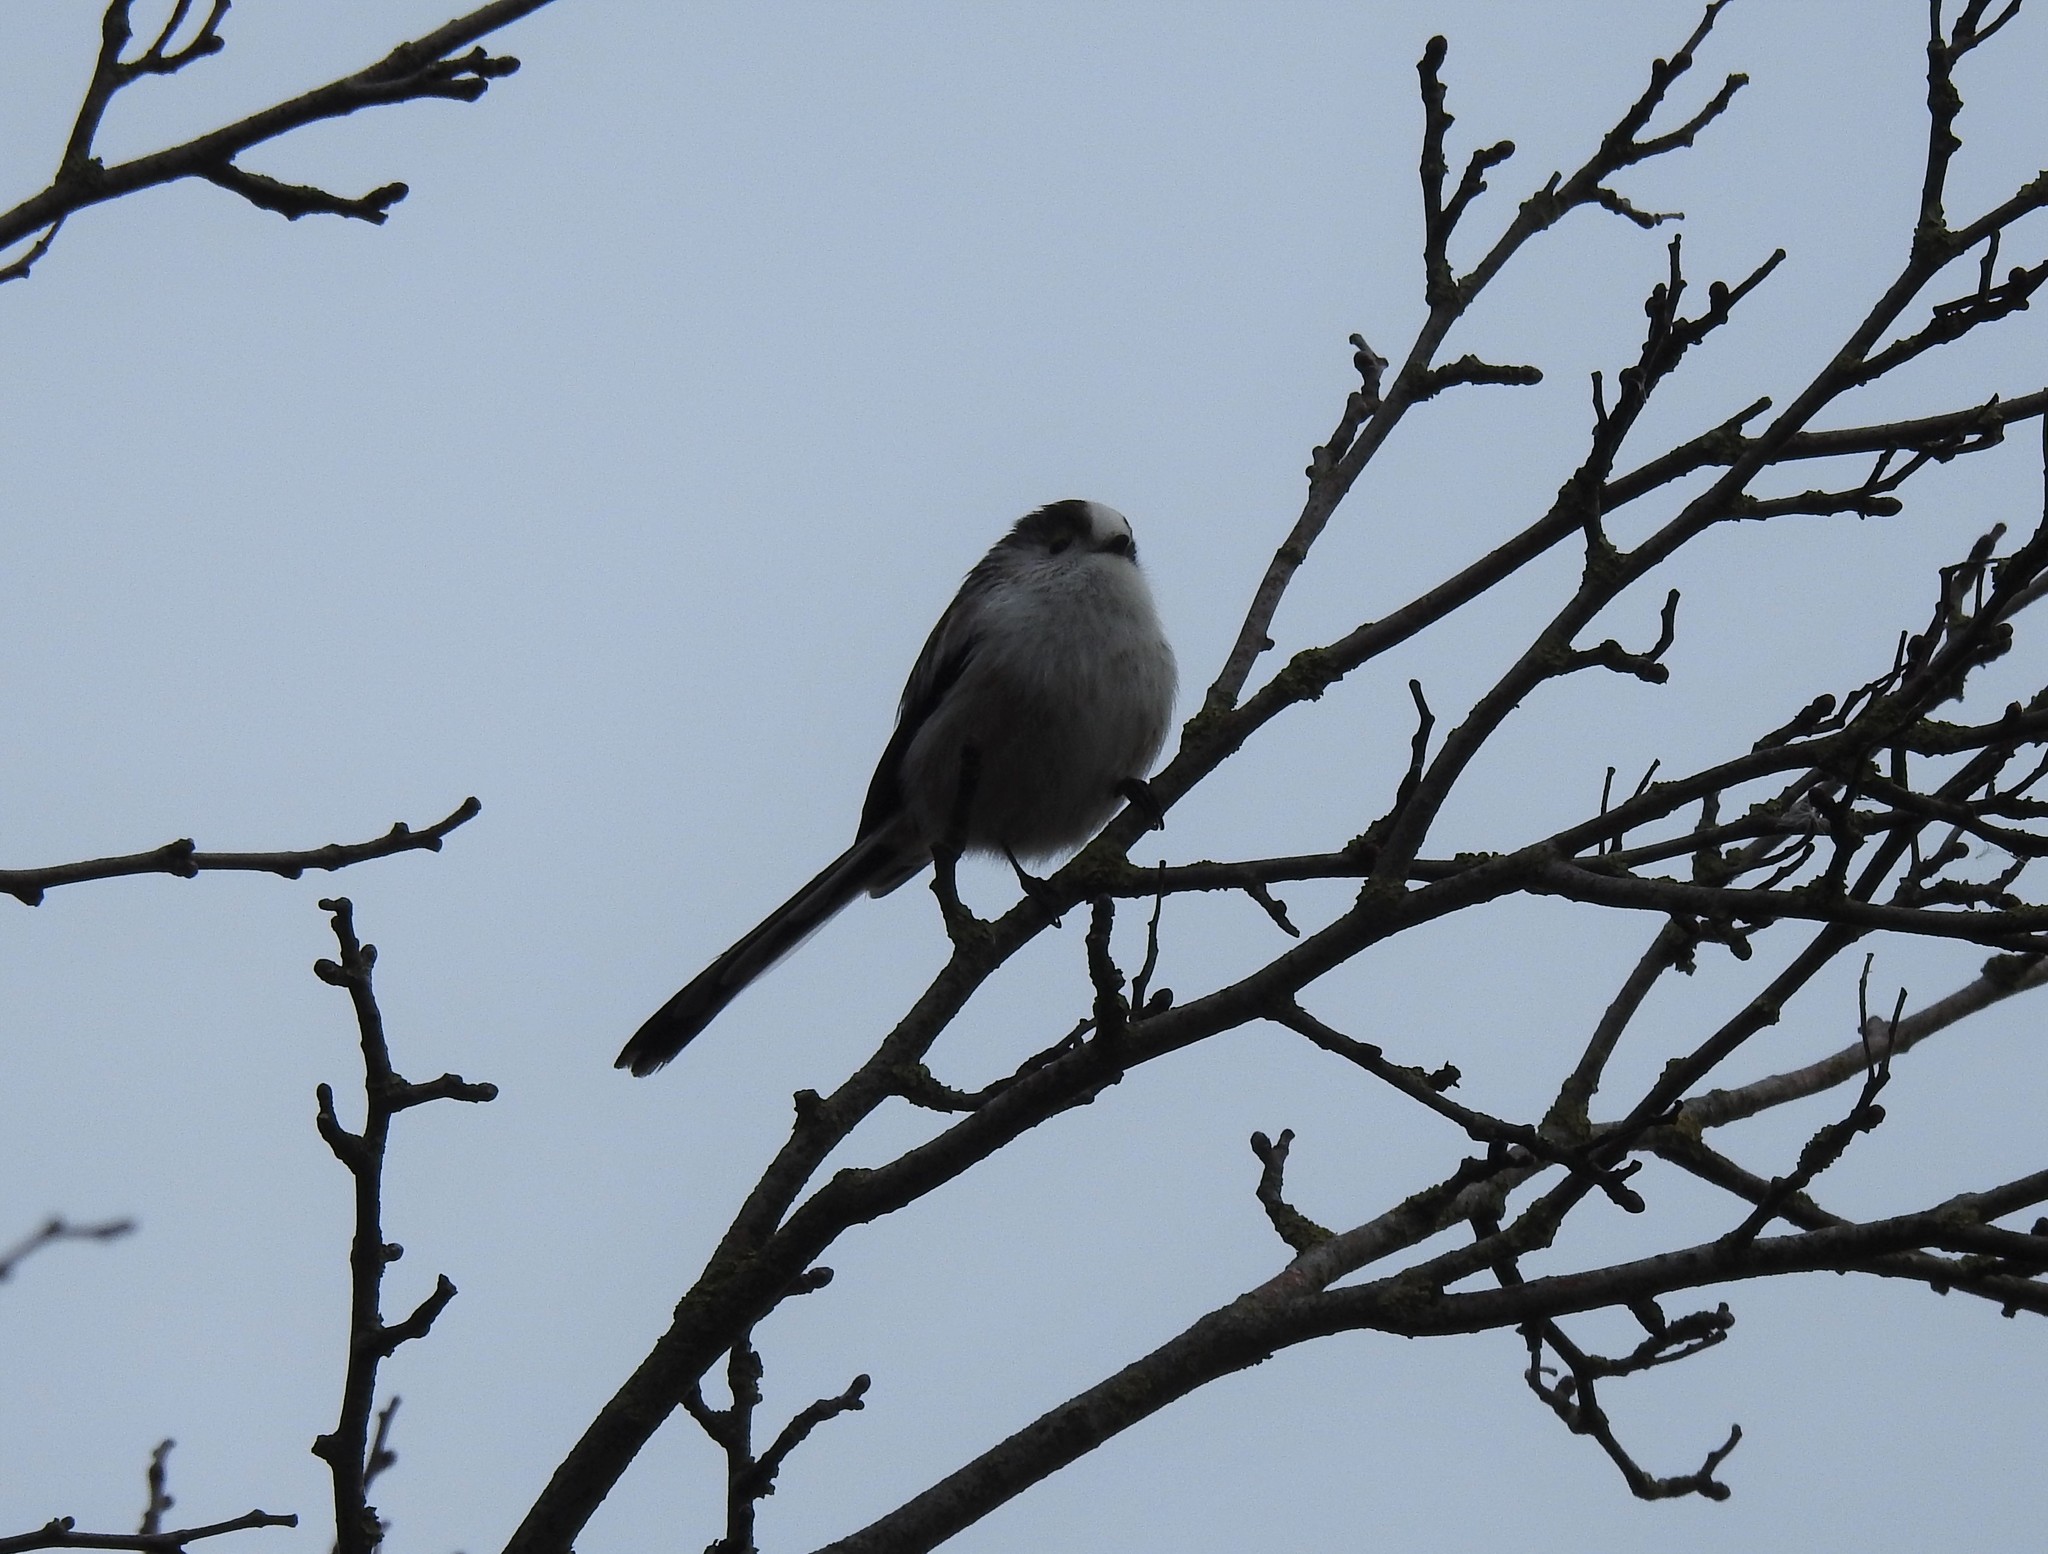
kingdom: Animalia
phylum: Chordata
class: Aves
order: Passeriformes
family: Aegithalidae
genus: Aegithalos
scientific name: Aegithalos caudatus
